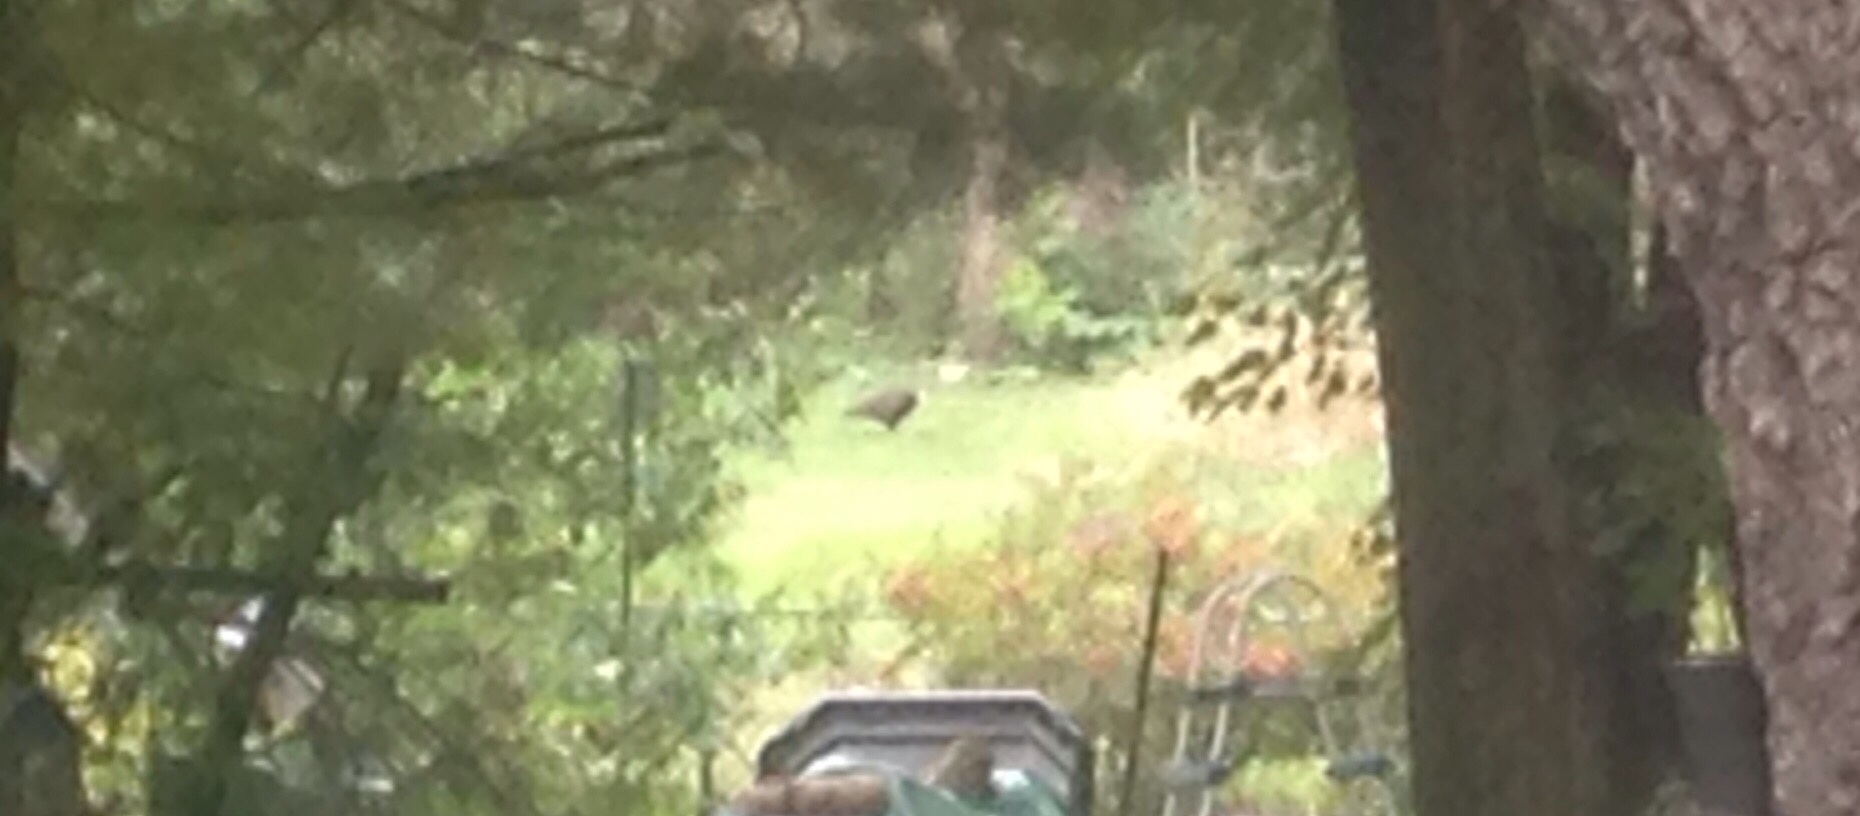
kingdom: Animalia
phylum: Chordata
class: Aves
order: Accipitriformes
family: Cathartidae
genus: Cathartes
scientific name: Cathartes aura
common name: Turkey vulture
